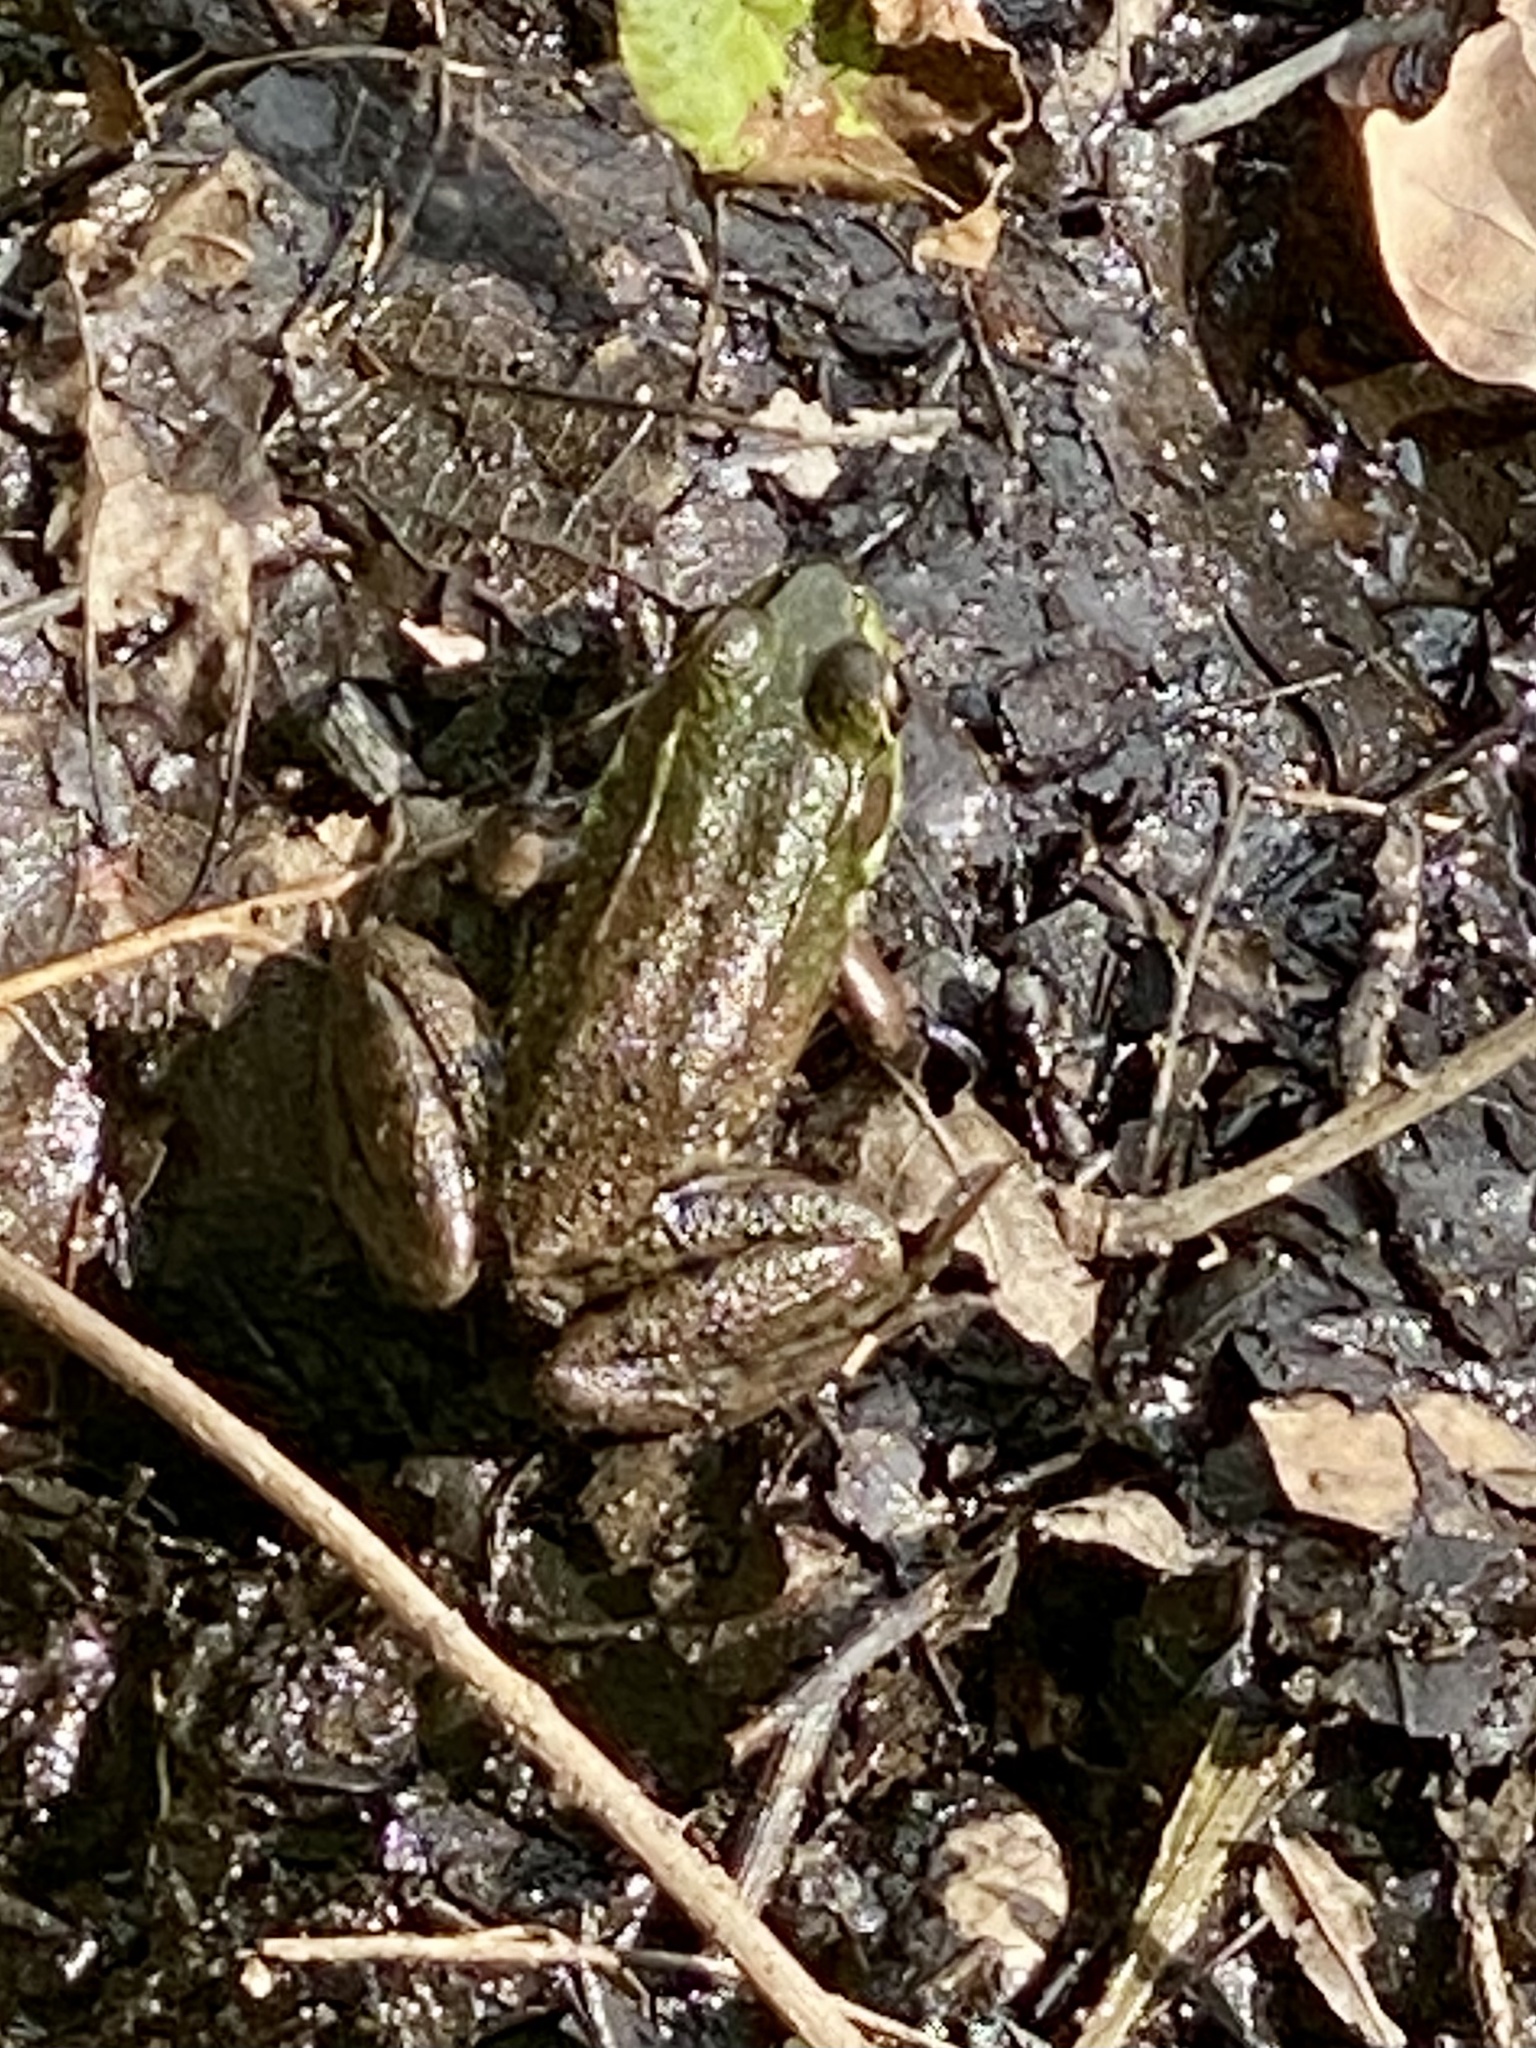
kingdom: Animalia
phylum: Chordata
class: Amphibia
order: Anura
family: Ranidae
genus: Lithobates
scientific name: Lithobates clamitans
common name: Green frog
